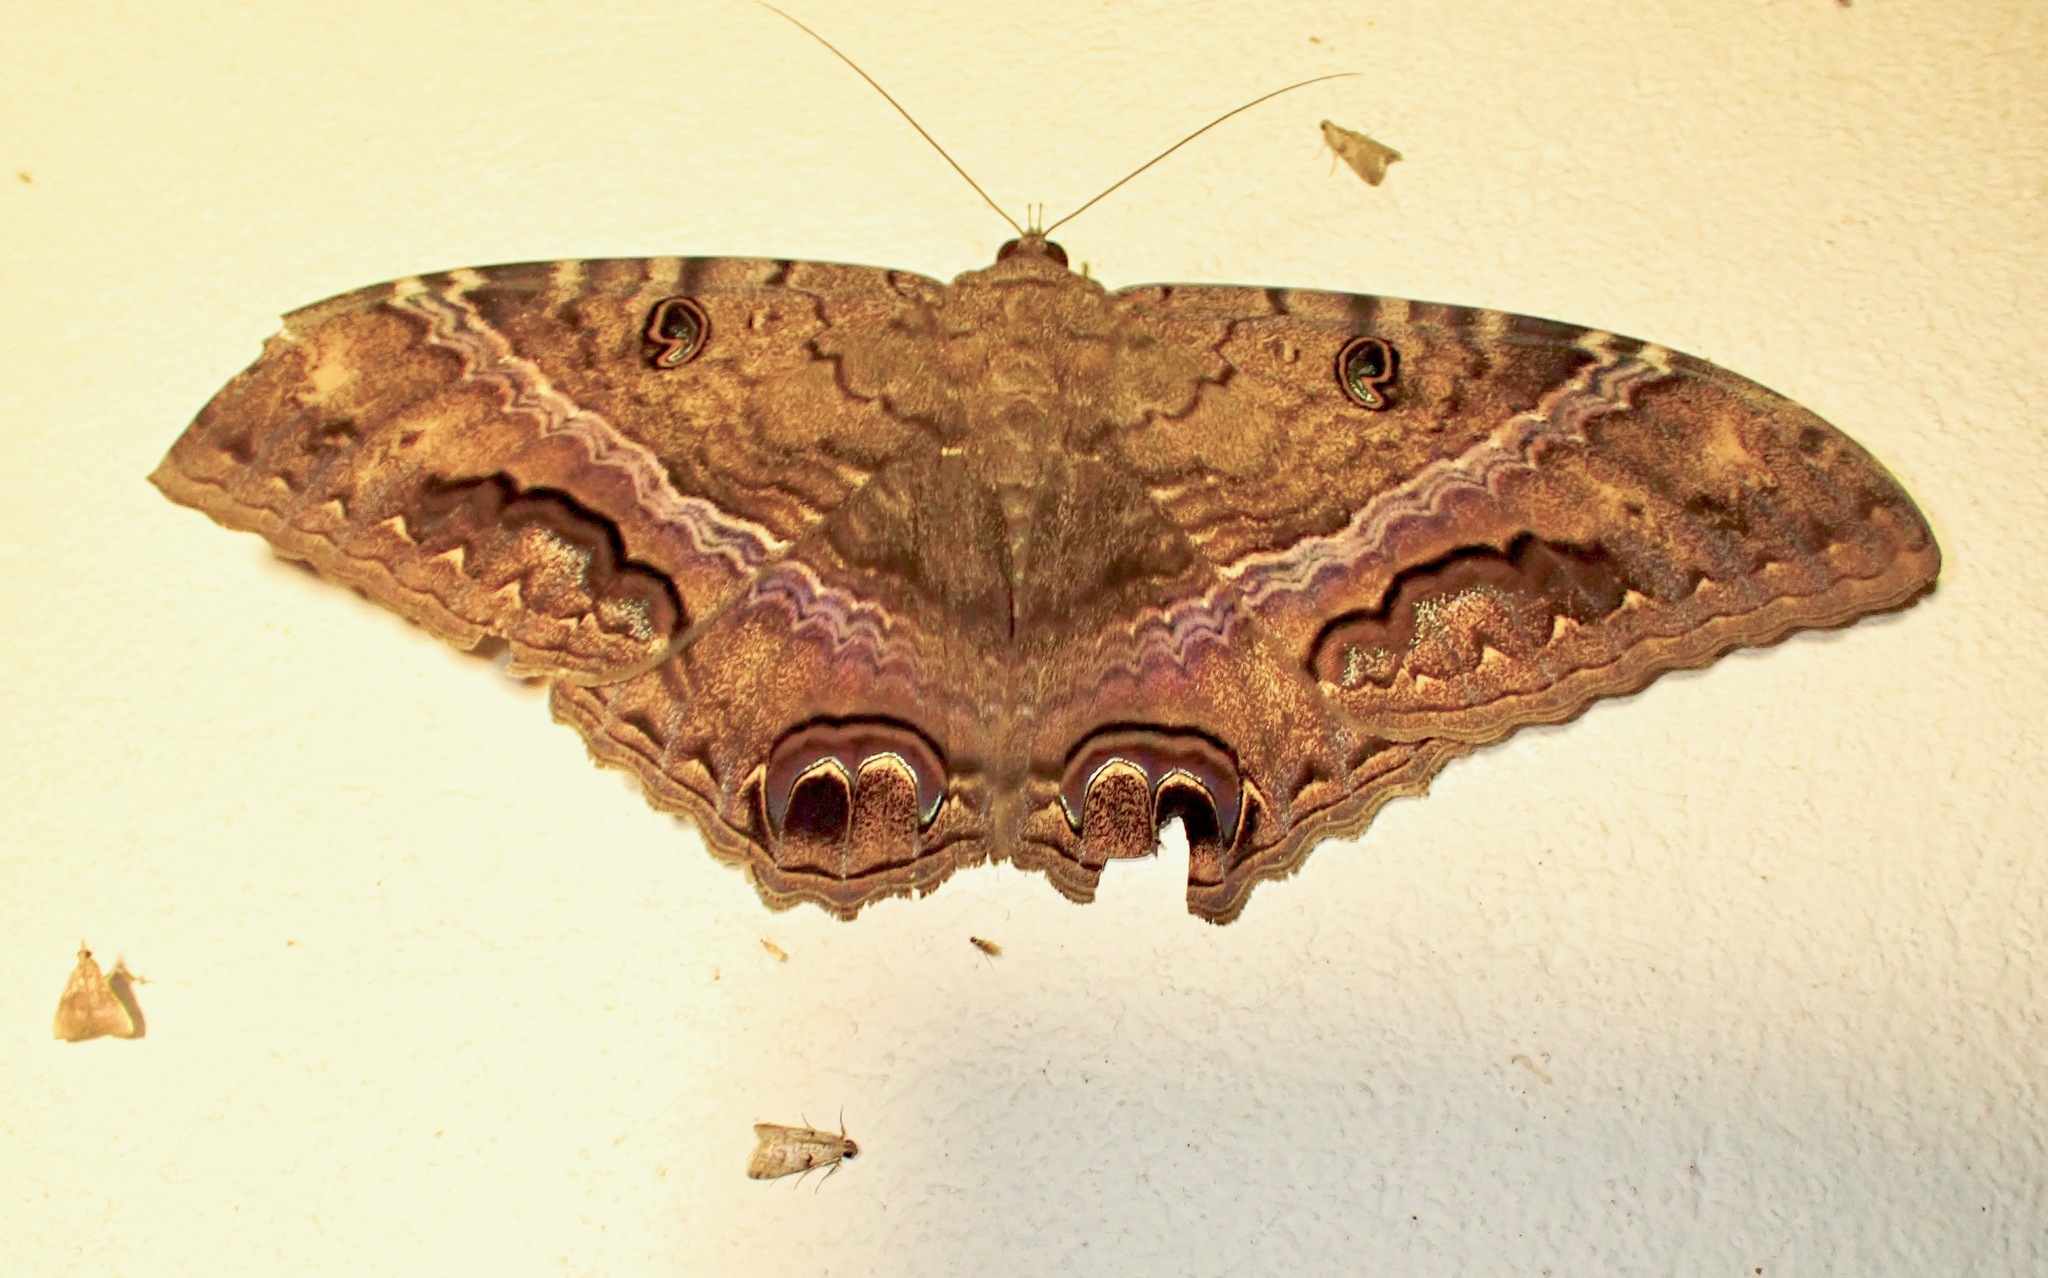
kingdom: Animalia
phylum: Arthropoda
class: Insecta
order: Lepidoptera
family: Erebidae
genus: Ascalapha
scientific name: Ascalapha odorata
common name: Black witch
